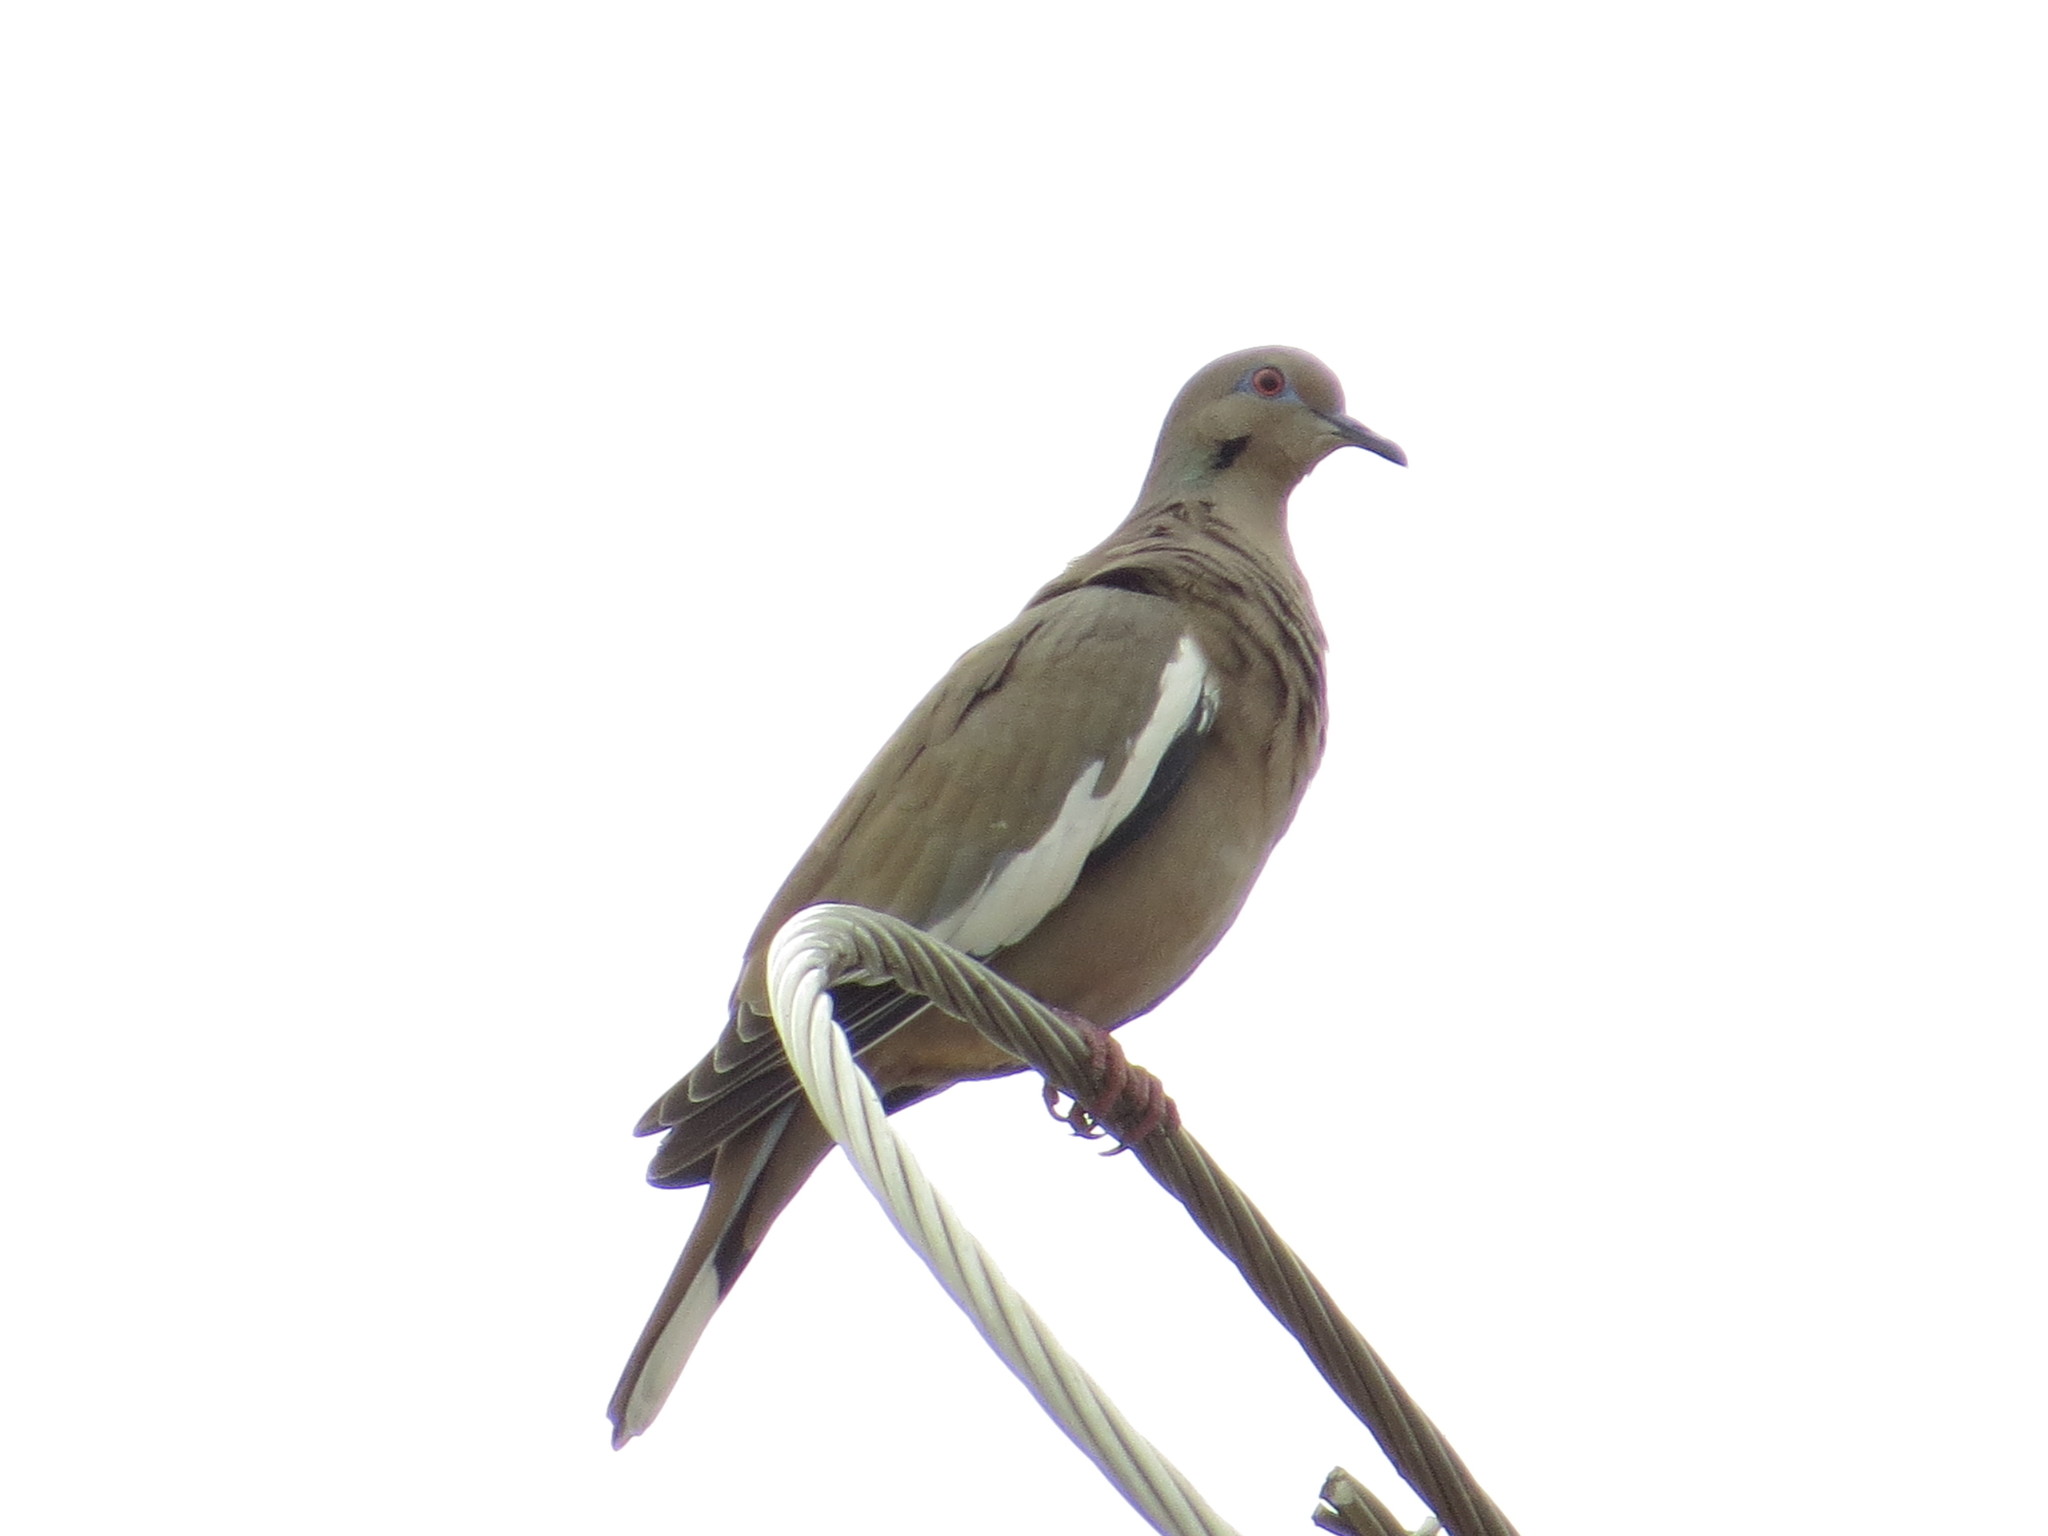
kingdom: Animalia
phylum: Chordata
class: Aves
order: Columbiformes
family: Columbidae
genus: Zenaida
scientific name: Zenaida asiatica
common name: White-winged dove
